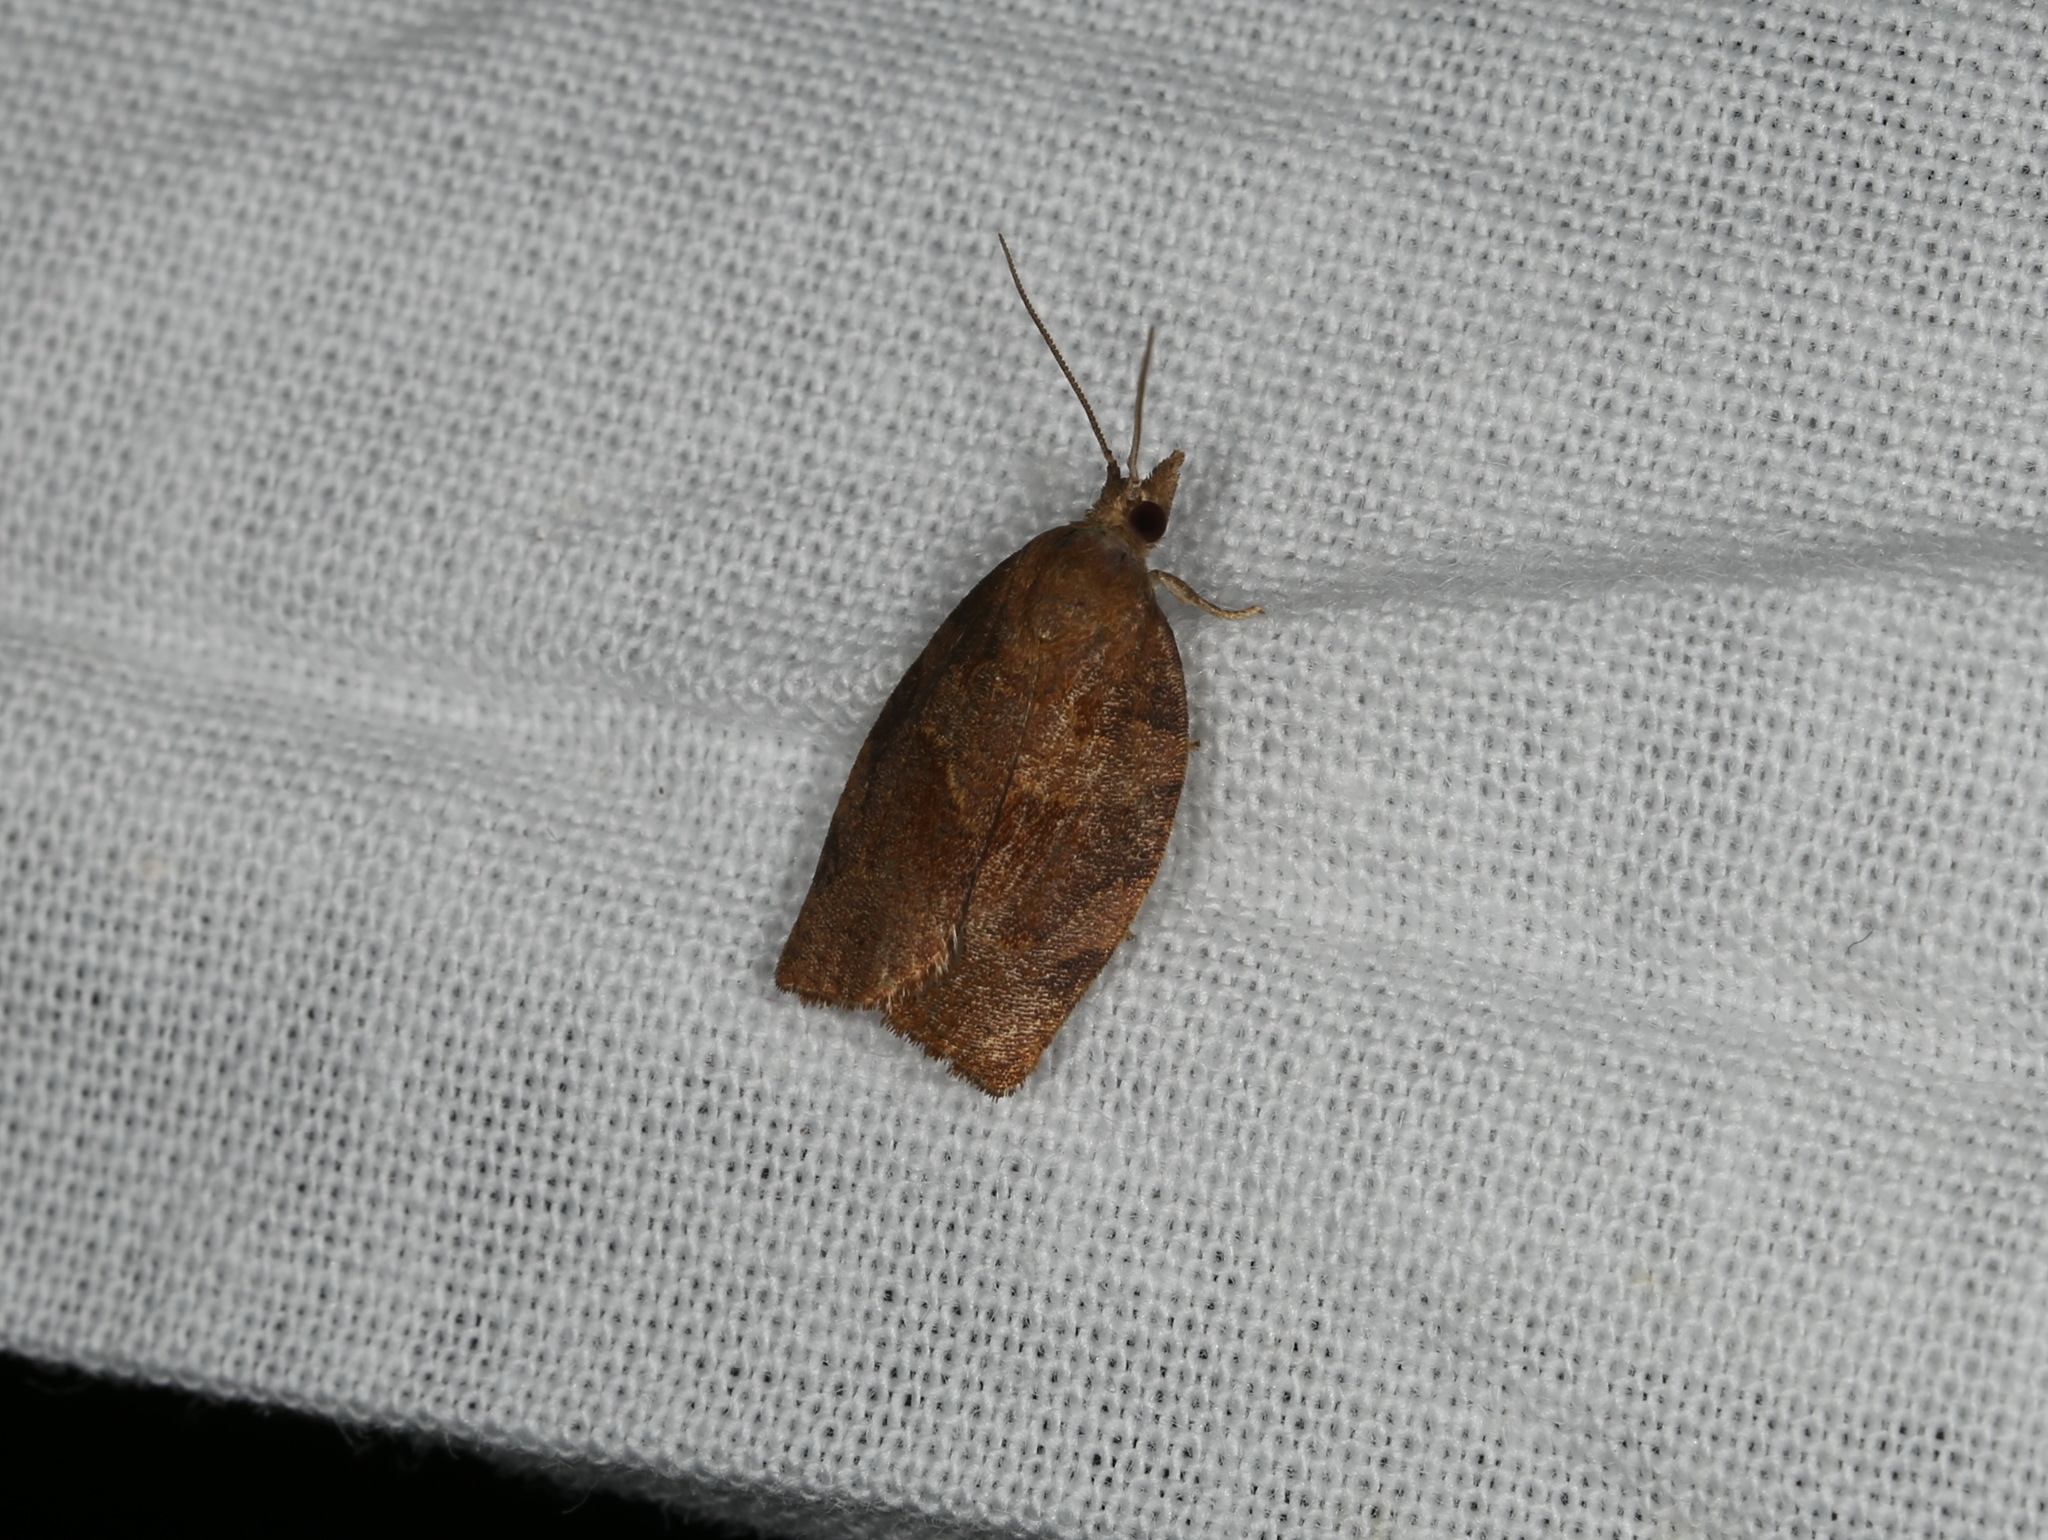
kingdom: Animalia
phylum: Arthropoda
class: Insecta
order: Lepidoptera
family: Tortricidae
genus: Pandemis
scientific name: Pandemis heparana
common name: Dark fruit-tree tortrix
